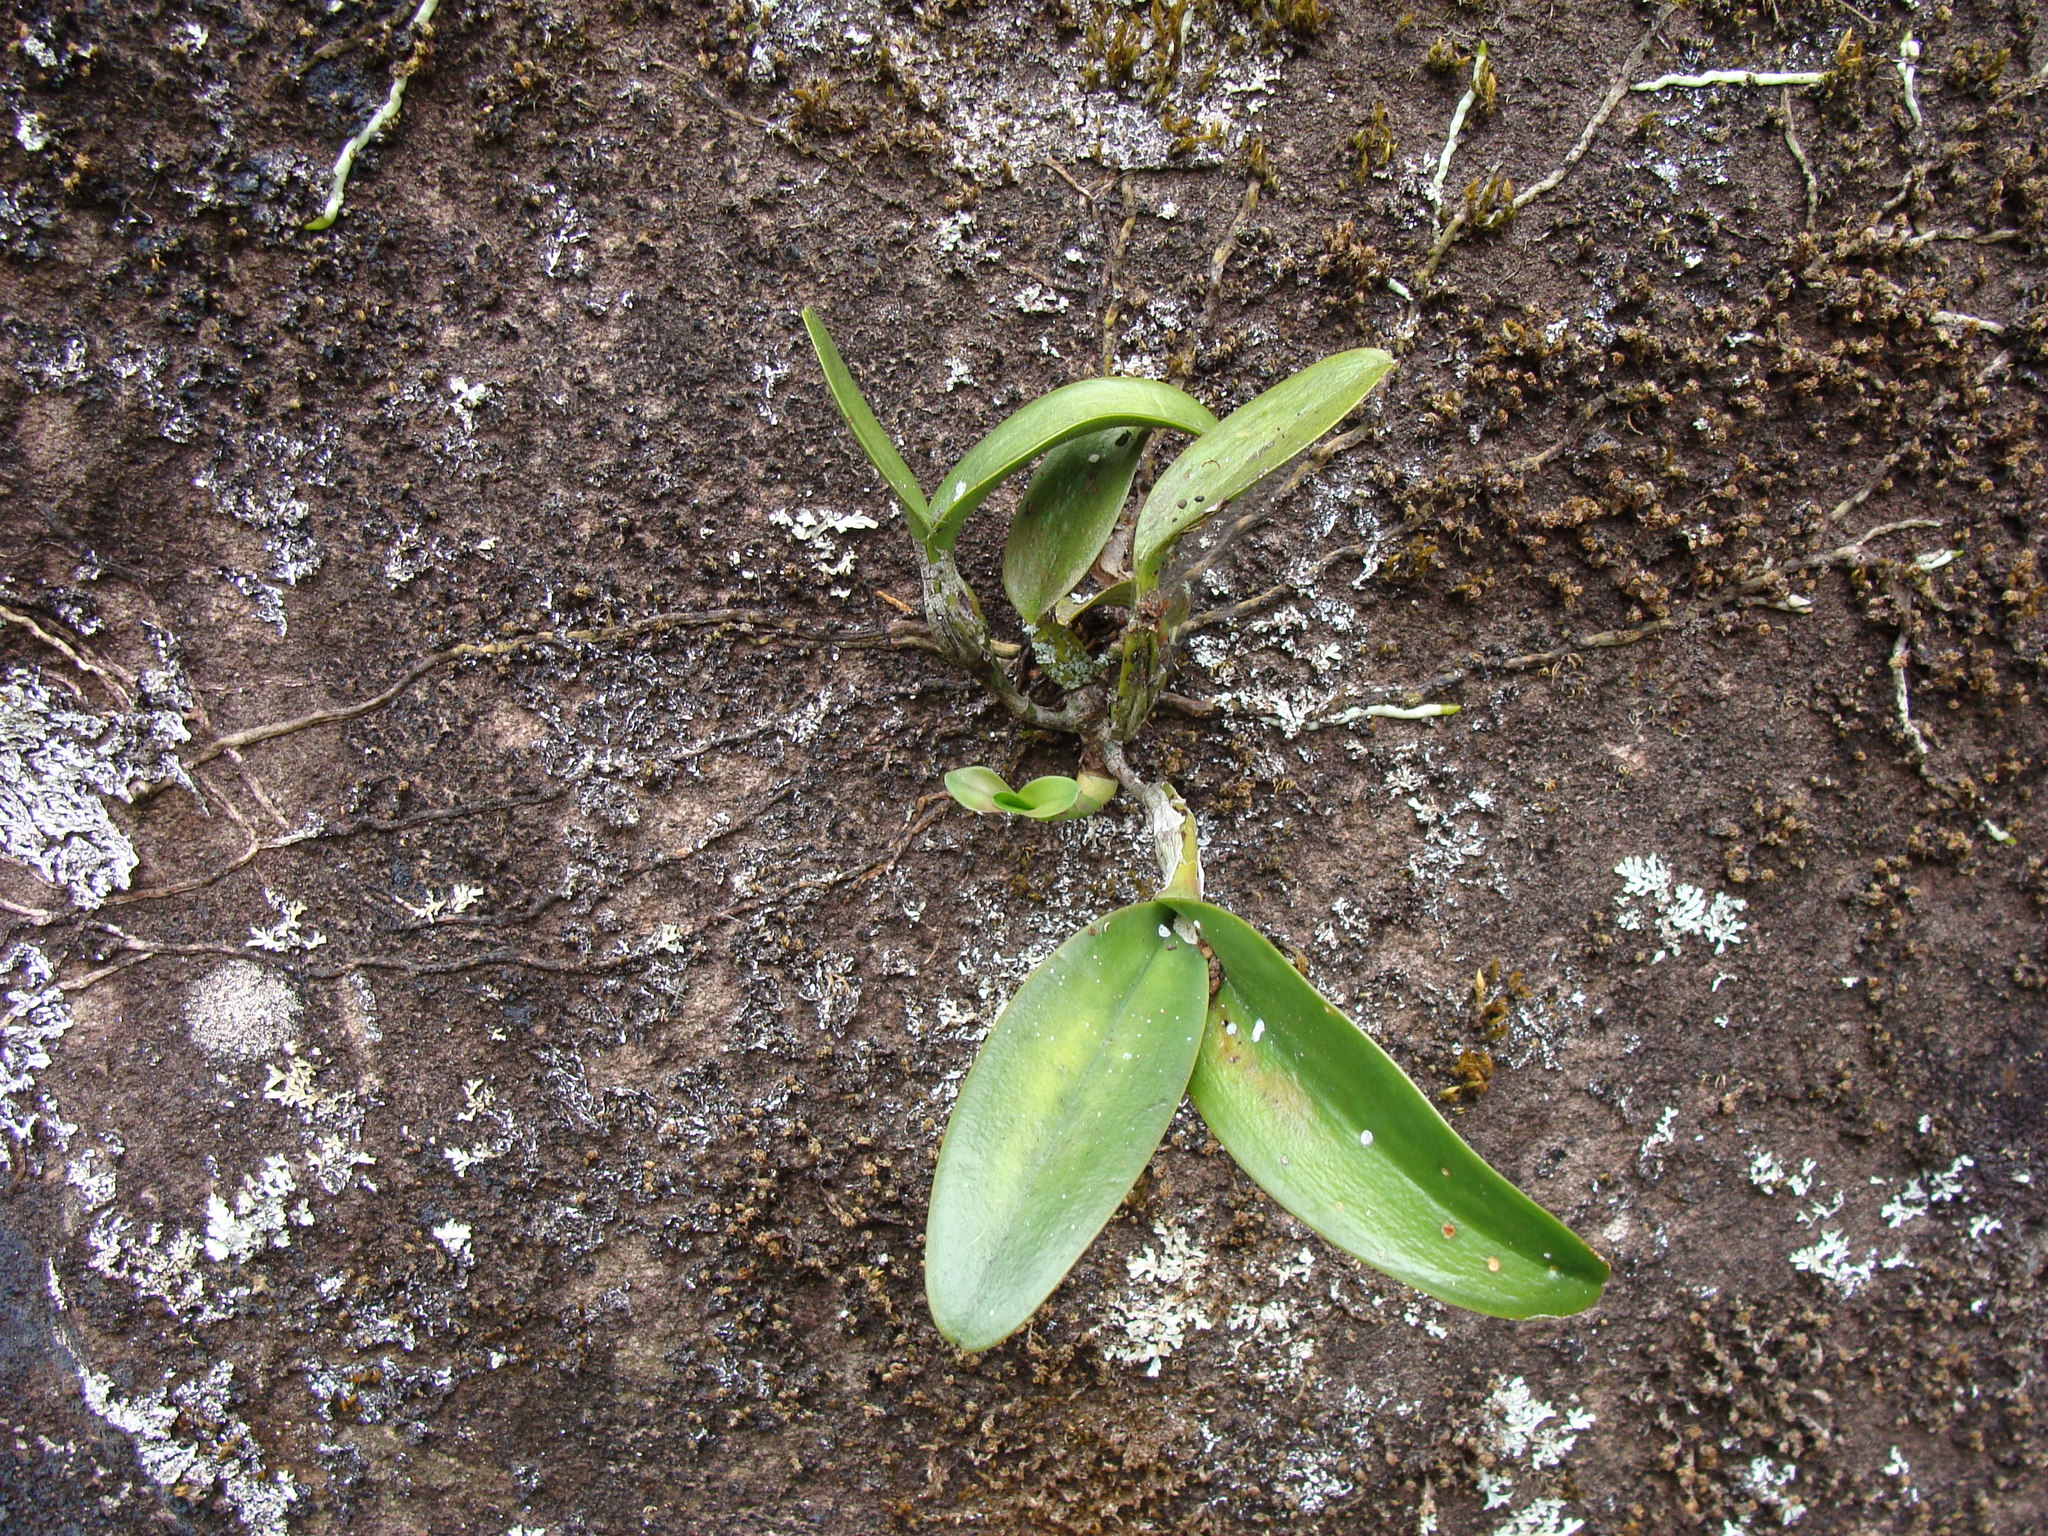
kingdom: Plantae
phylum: Tracheophyta
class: Liliopsida
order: Asparagales
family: Orchidaceae
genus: Guarianthe
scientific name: Guarianthe aurantiaca
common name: Orange cattleya
